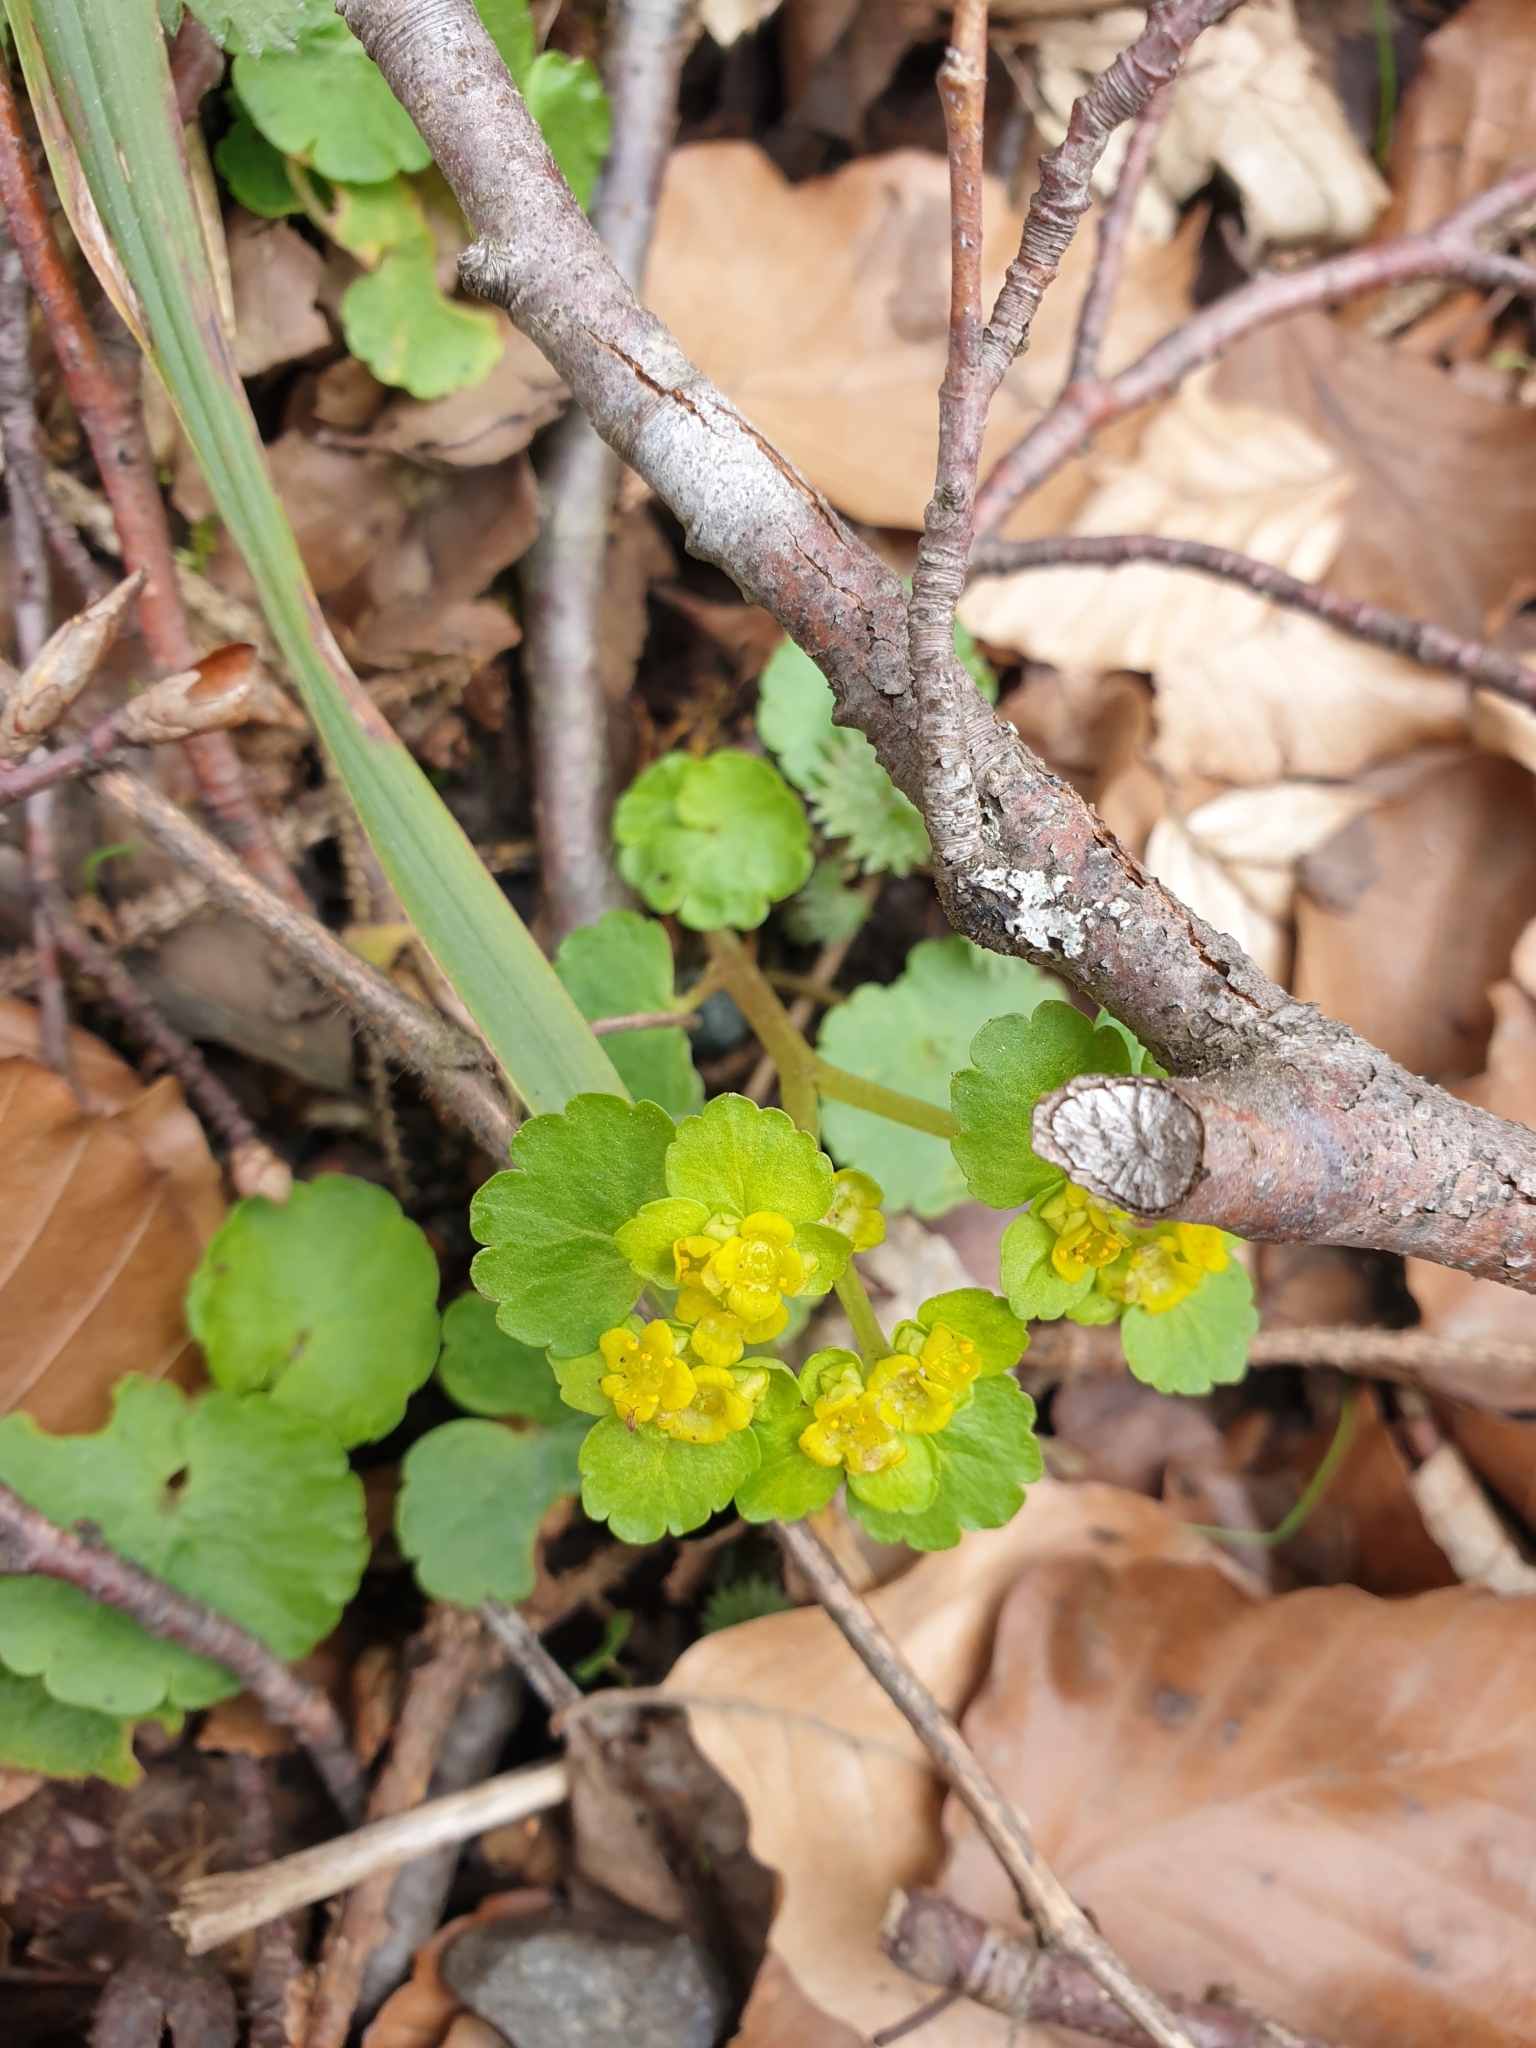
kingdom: Plantae
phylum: Tracheophyta
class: Magnoliopsida
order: Saxifragales
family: Saxifragaceae
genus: Chrysosplenium
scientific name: Chrysosplenium alternifolium
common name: Alternate-leaved golden-saxifrage
